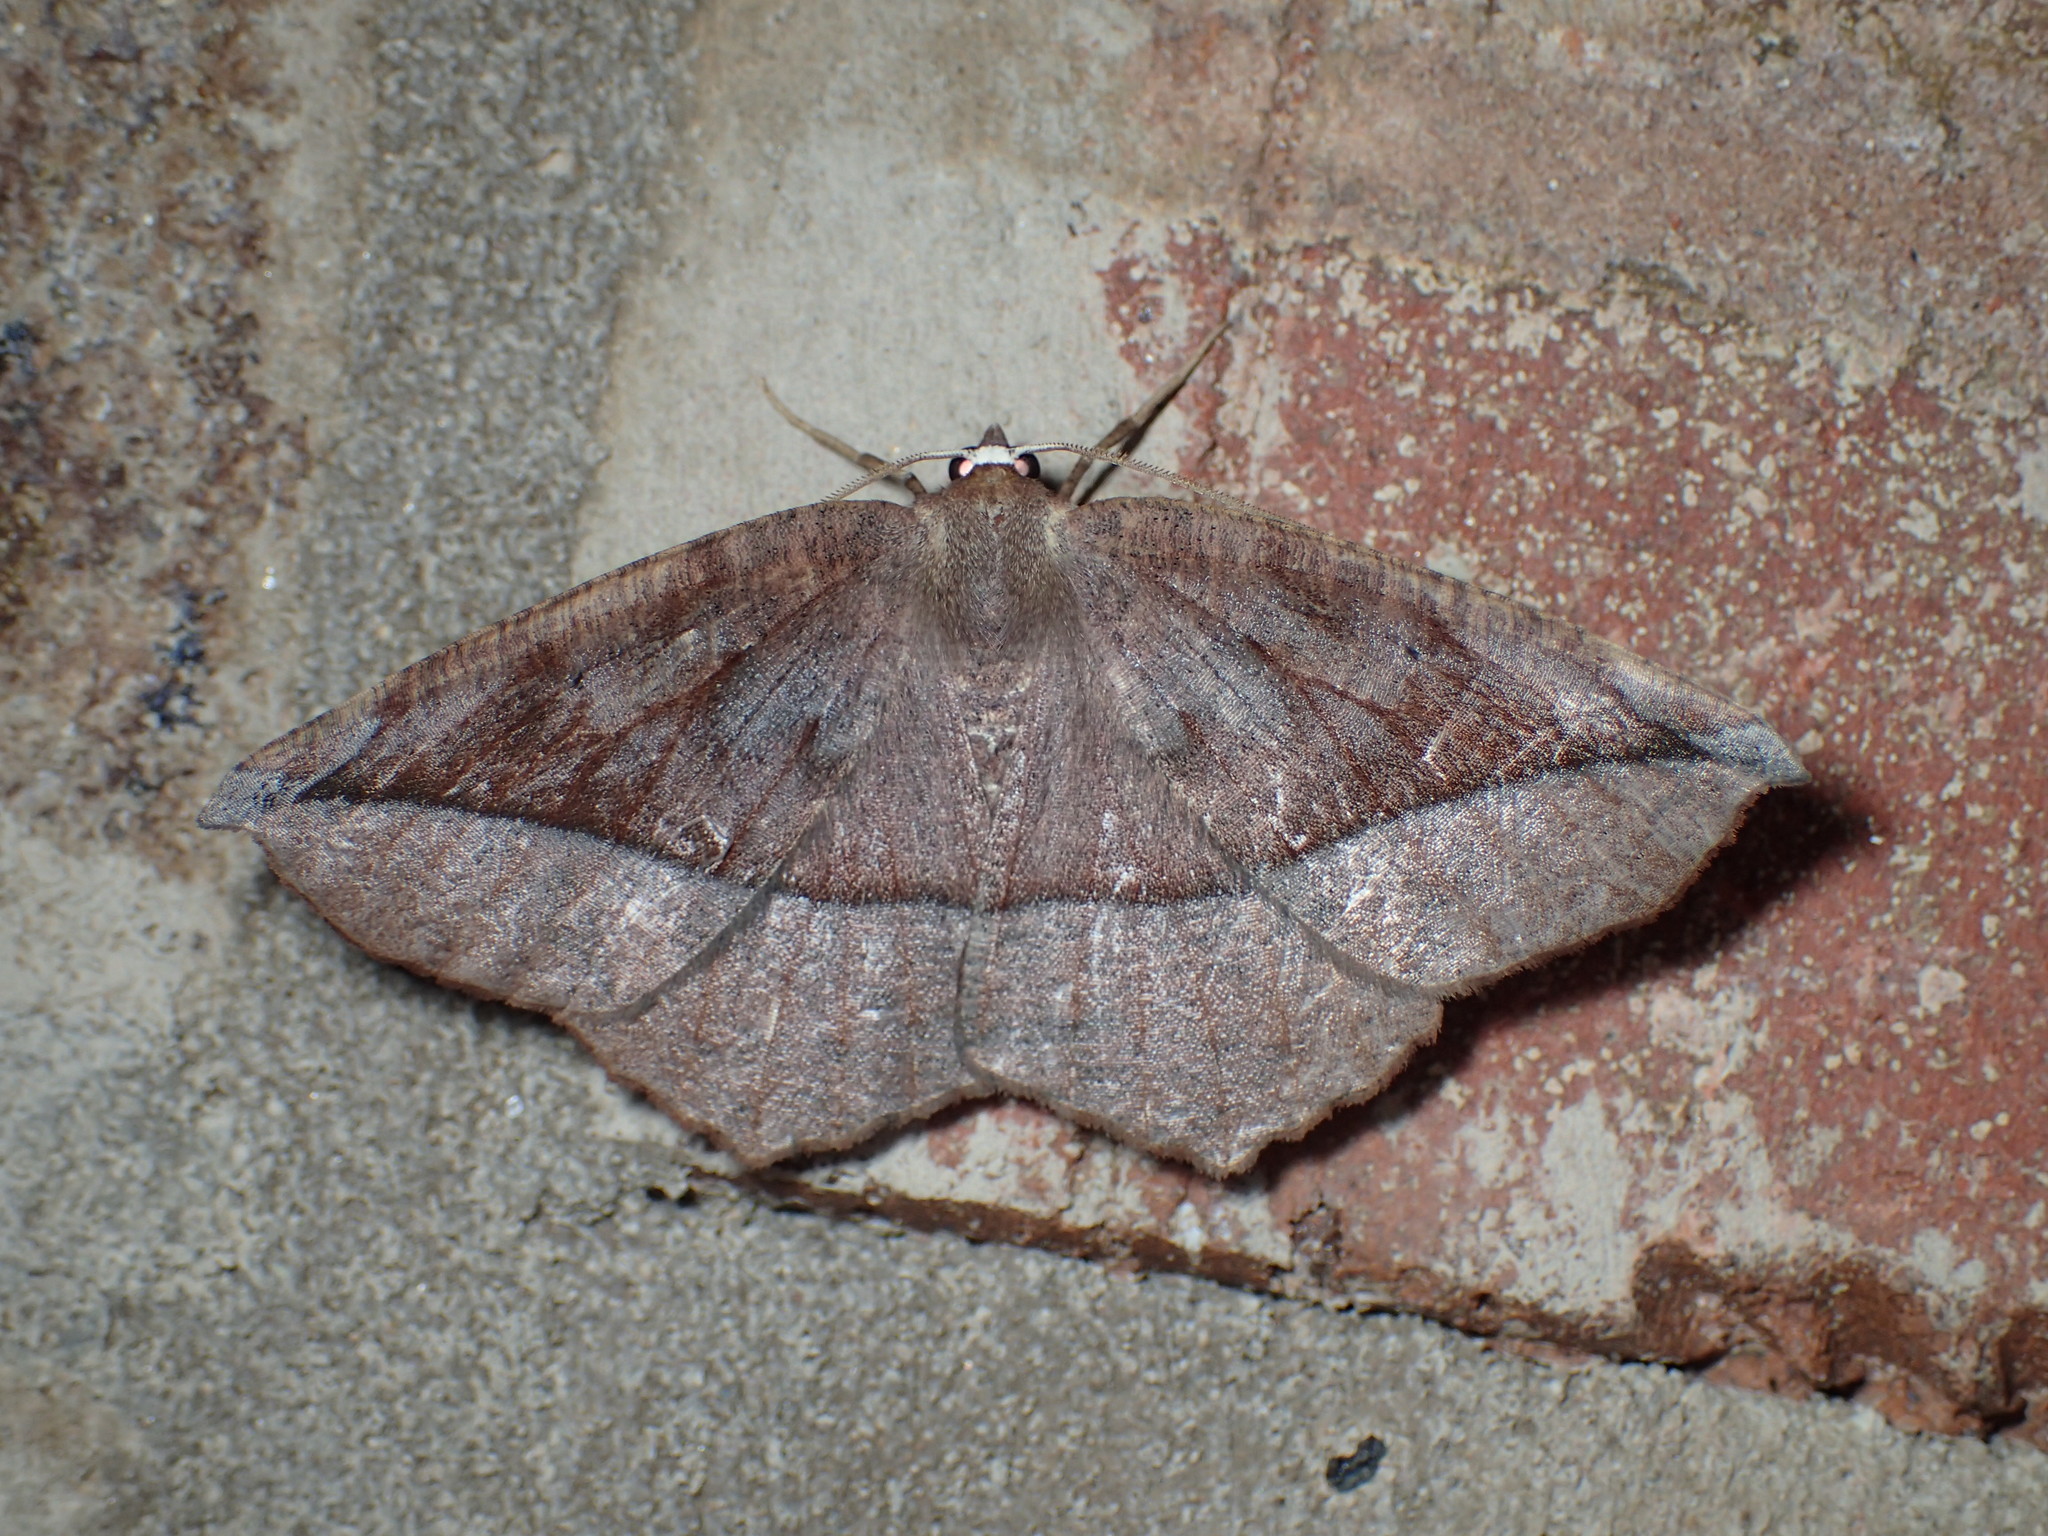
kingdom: Animalia
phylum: Arthropoda
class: Insecta
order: Lepidoptera
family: Geometridae
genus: Eutrapela
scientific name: Eutrapela clemataria
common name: Curved-toothed geometer
